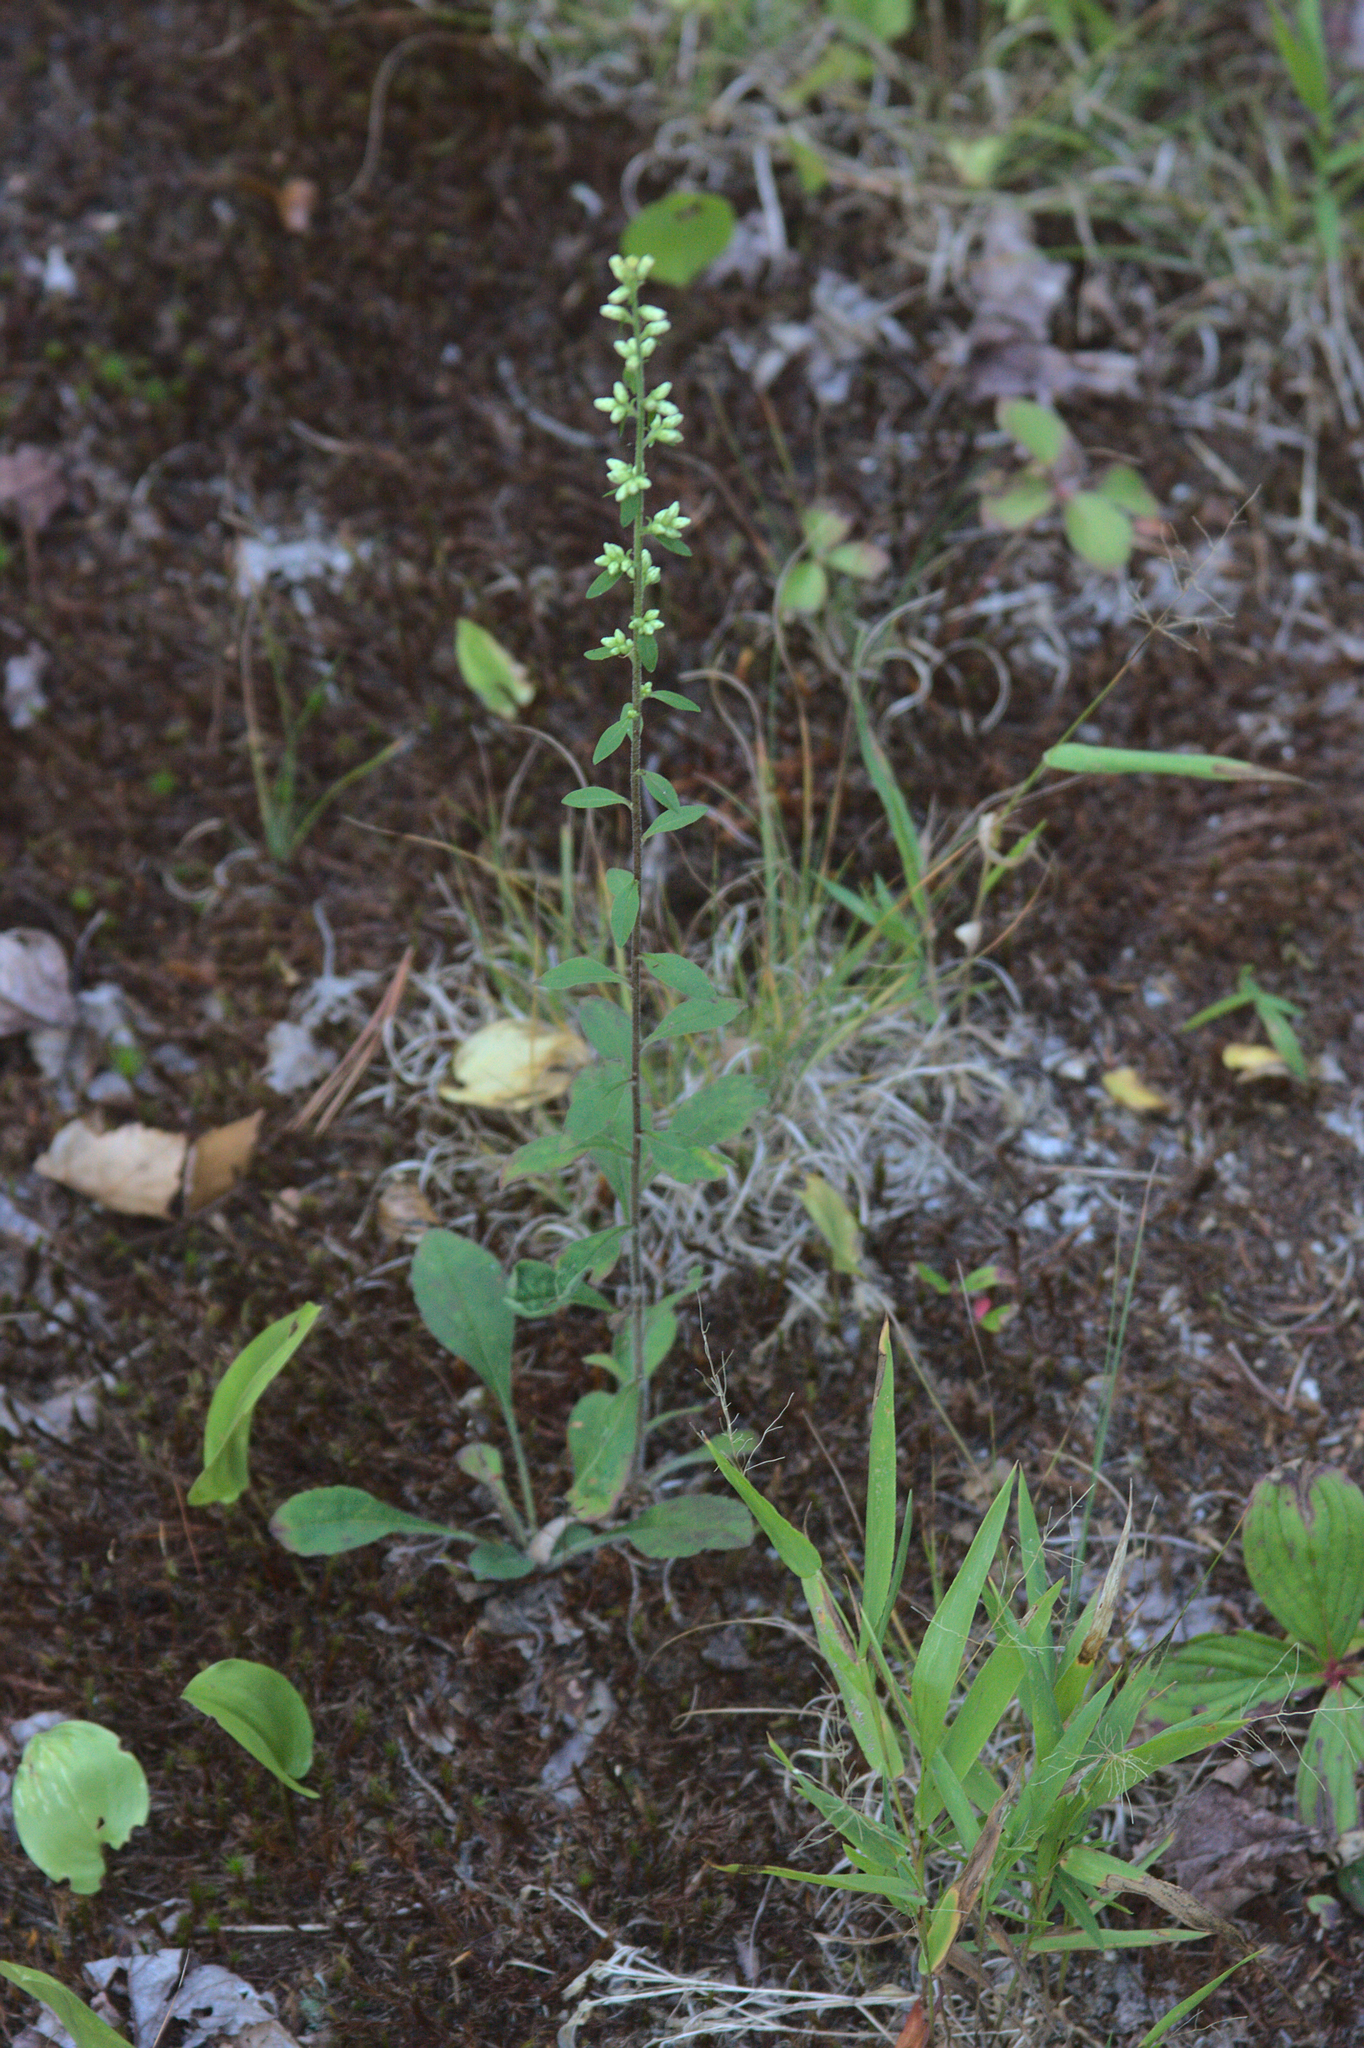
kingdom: Plantae
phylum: Tracheophyta
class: Magnoliopsida
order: Asterales
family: Asteraceae
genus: Solidago
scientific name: Solidago bicolor
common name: Silverrod
